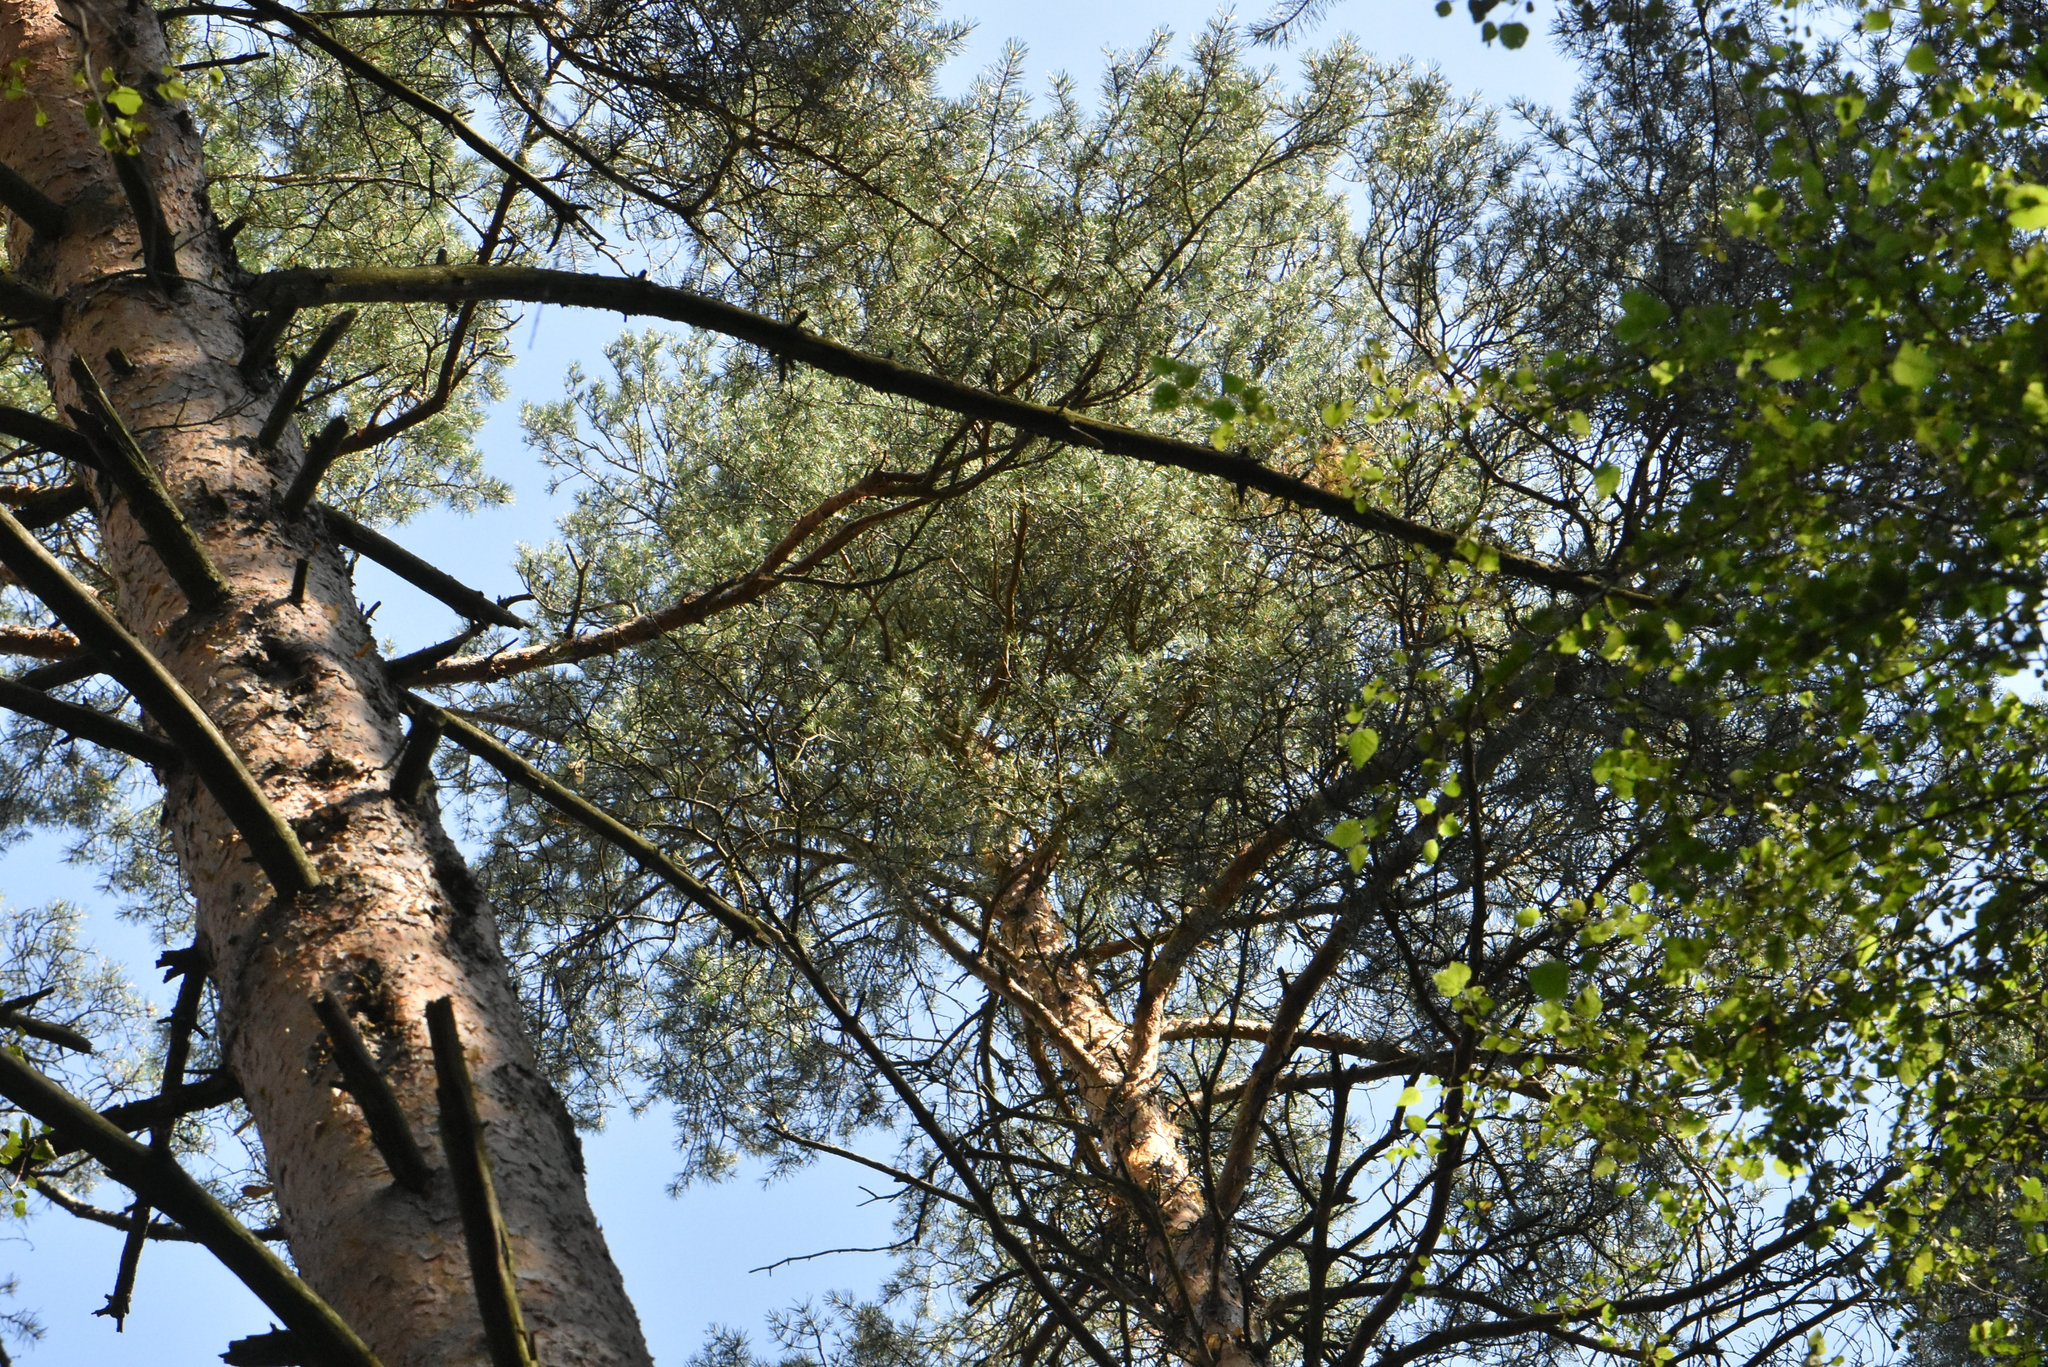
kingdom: Plantae
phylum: Tracheophyta
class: Pinopsida
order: Pinales
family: Pinaceae
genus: Pinus
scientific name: Pinus sylvestris
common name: Scots pine
